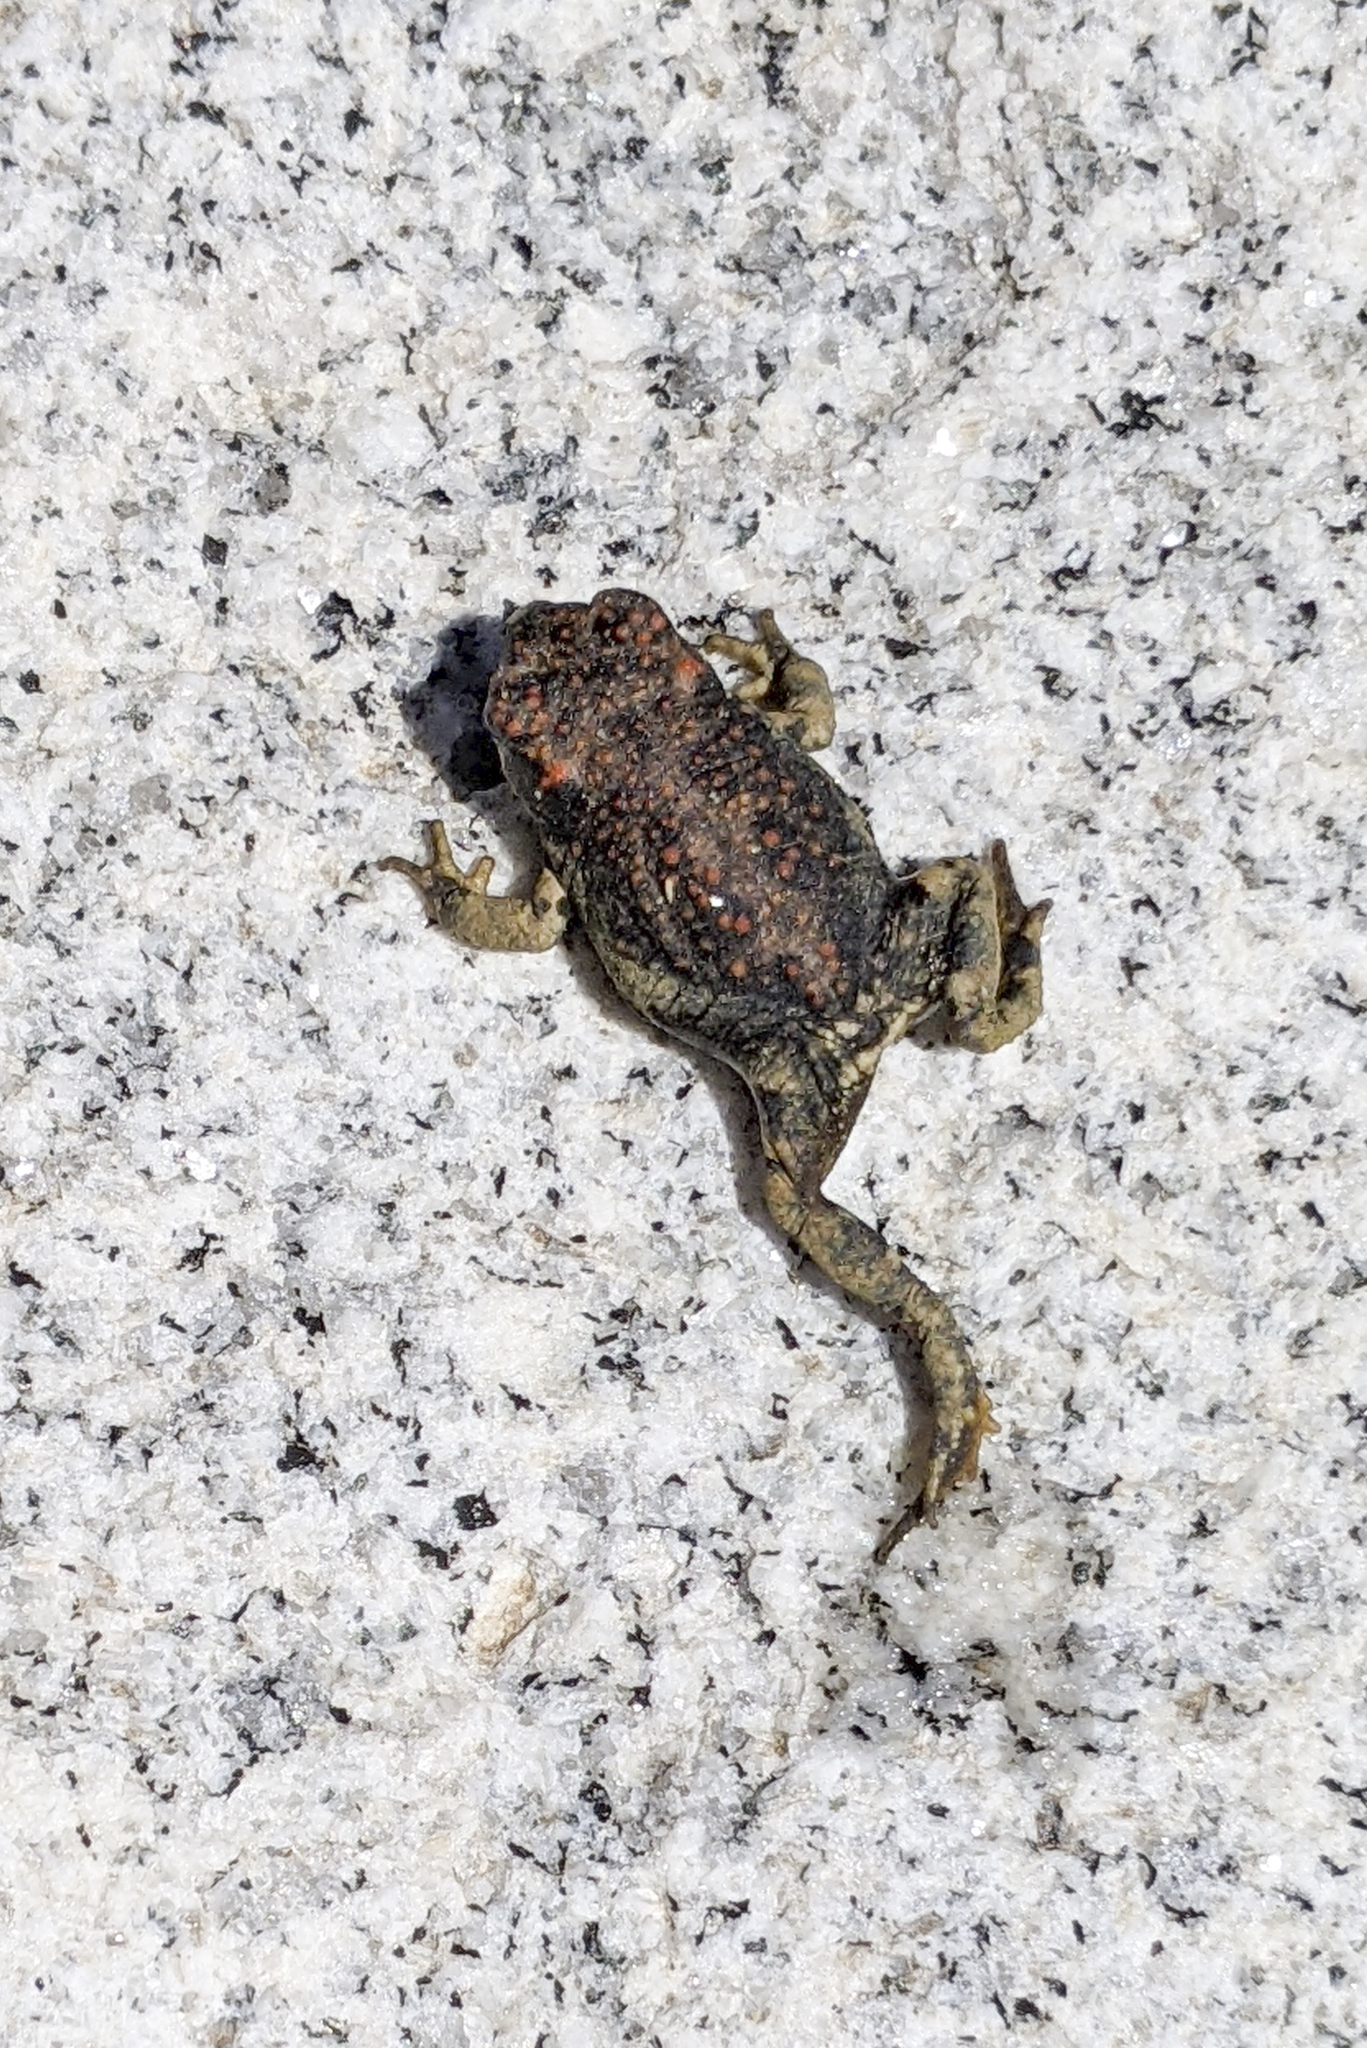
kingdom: Animalia
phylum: Chordata
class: Amphibia
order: Anura
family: Bufonidae
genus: Anaxyrus
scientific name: Anaxyrus punctatus
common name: Red-spotted toad
